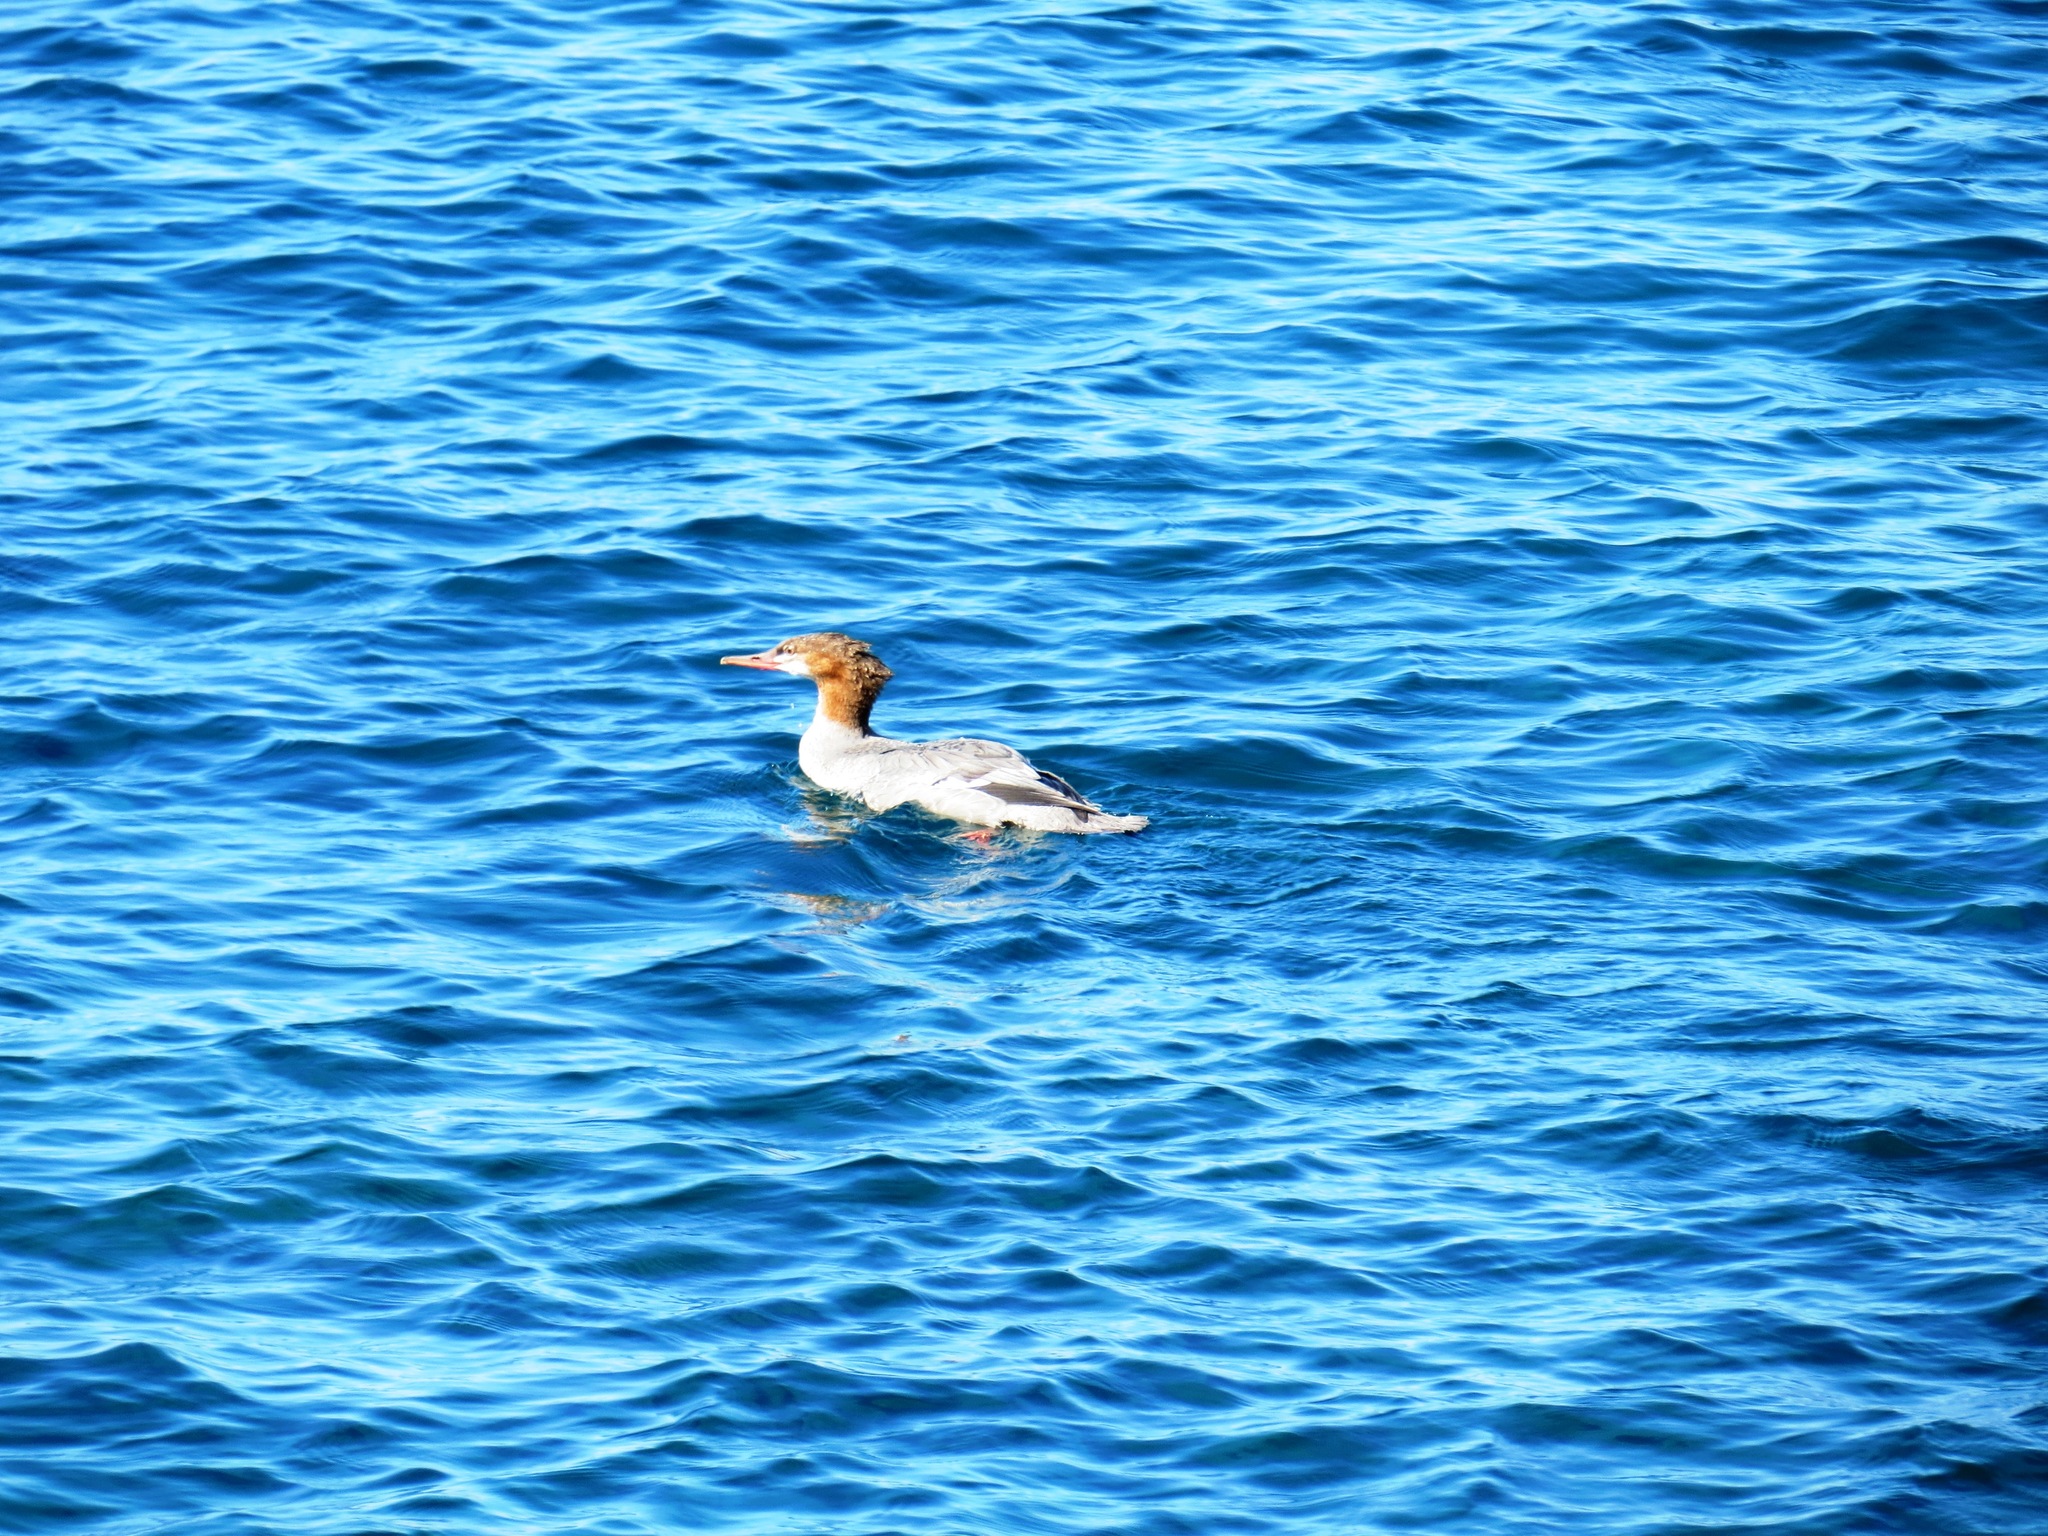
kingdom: Animalia
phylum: Chordata
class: Aves
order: Anseriformes
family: Anatidae
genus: Mergus
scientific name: Mergus merganser
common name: Common merganser
